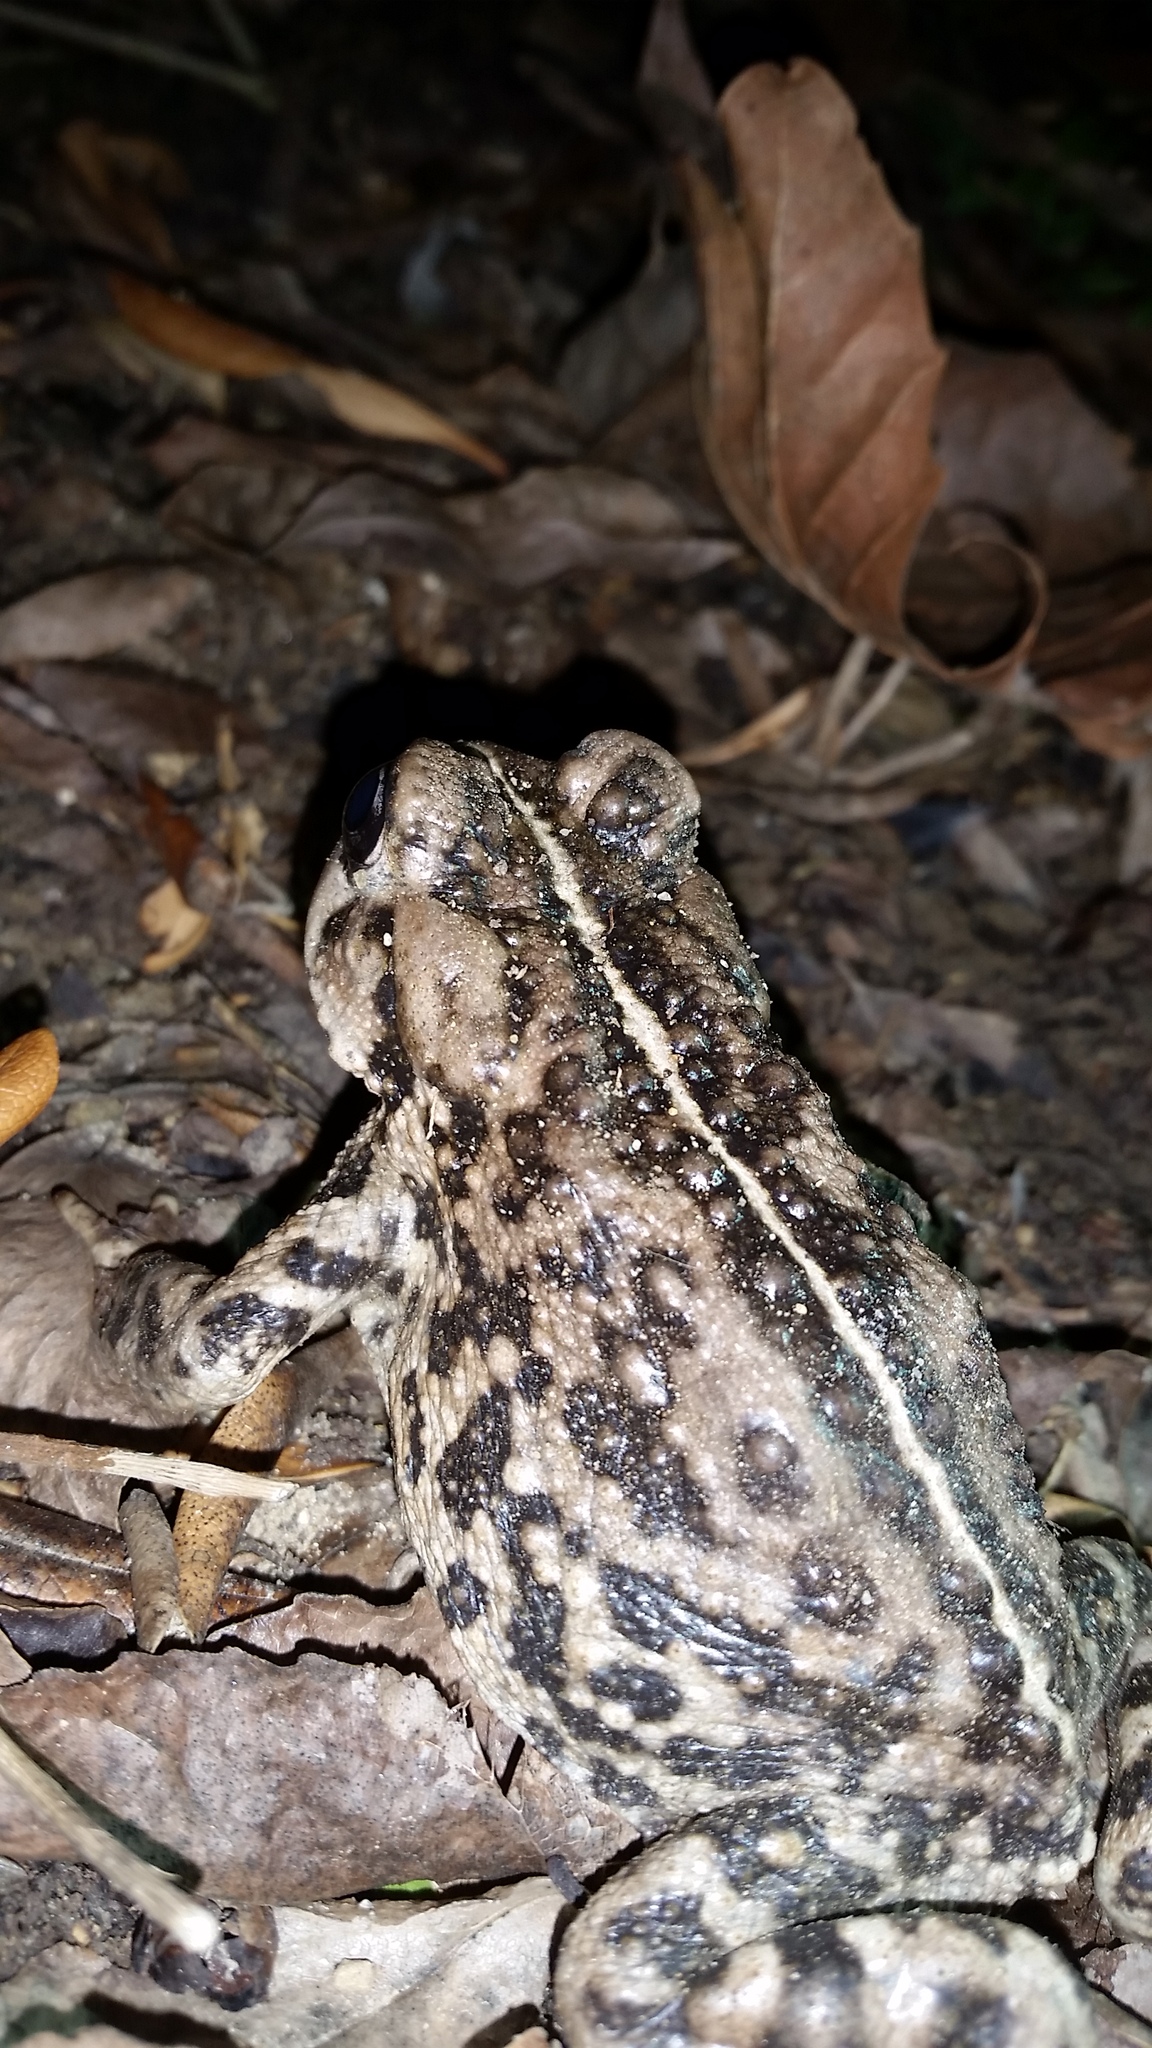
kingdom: Animalia
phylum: Chordata
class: Amphibia
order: Anura
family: Bufonidae
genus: Anaxyrus
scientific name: Anaxyrus boreas
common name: Western toad
